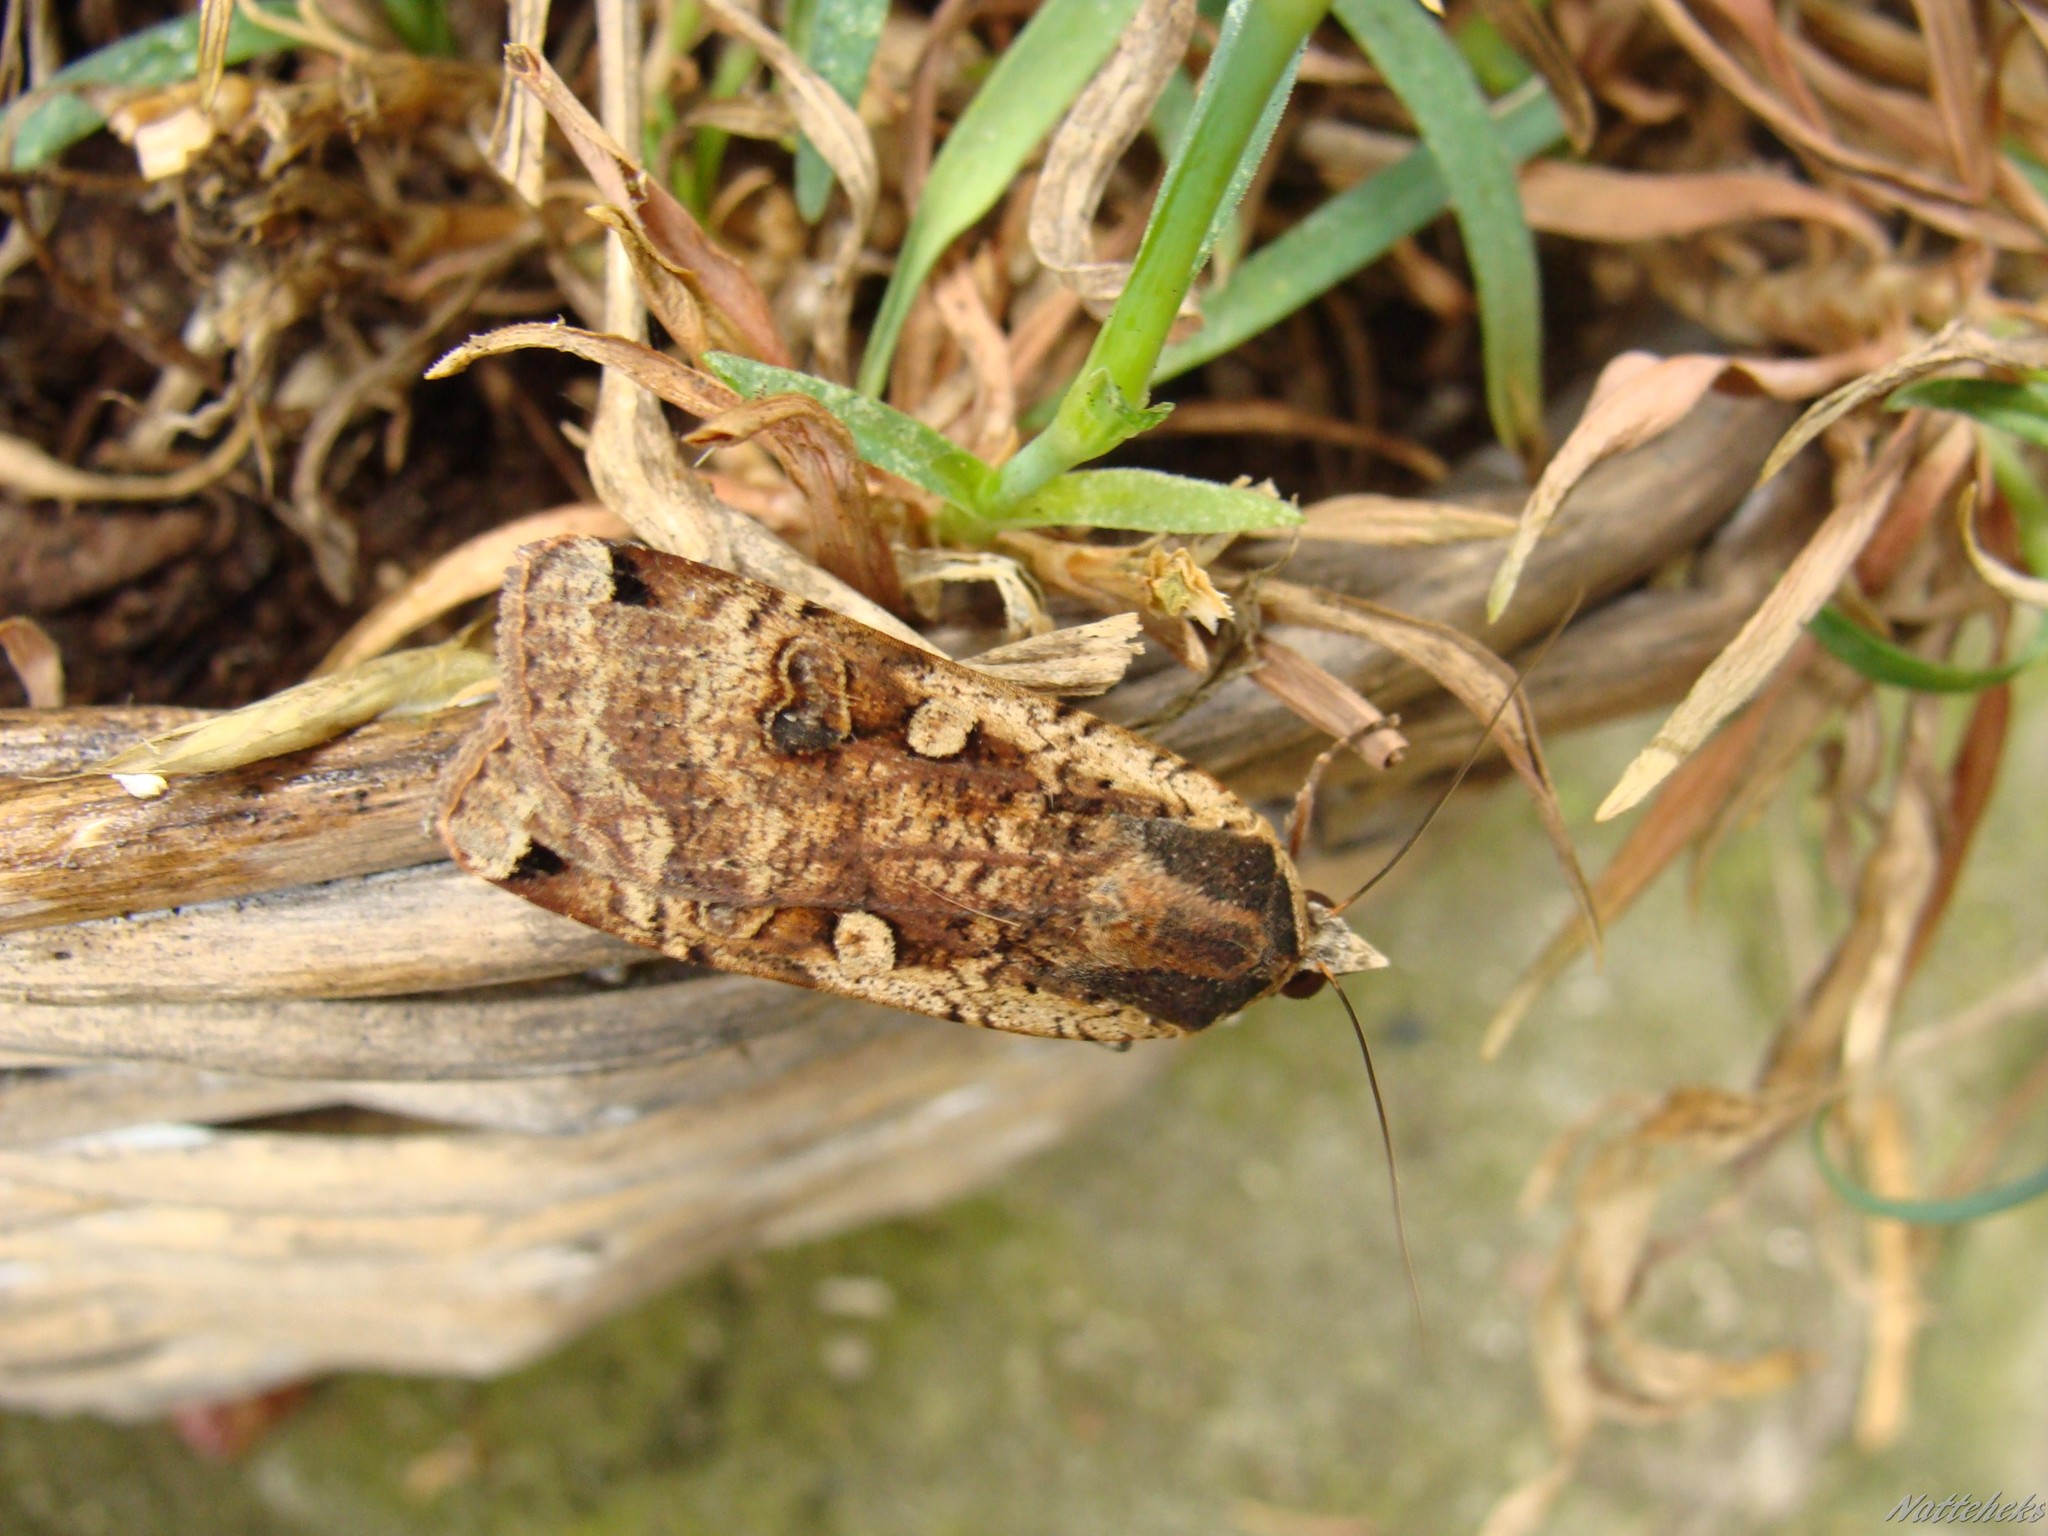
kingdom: Animalia
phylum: Arthropoda
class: Insecta
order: Lepidoptera
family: Noctuidae
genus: Noctua
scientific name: Noctua pronuba
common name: Large yellow underwing
